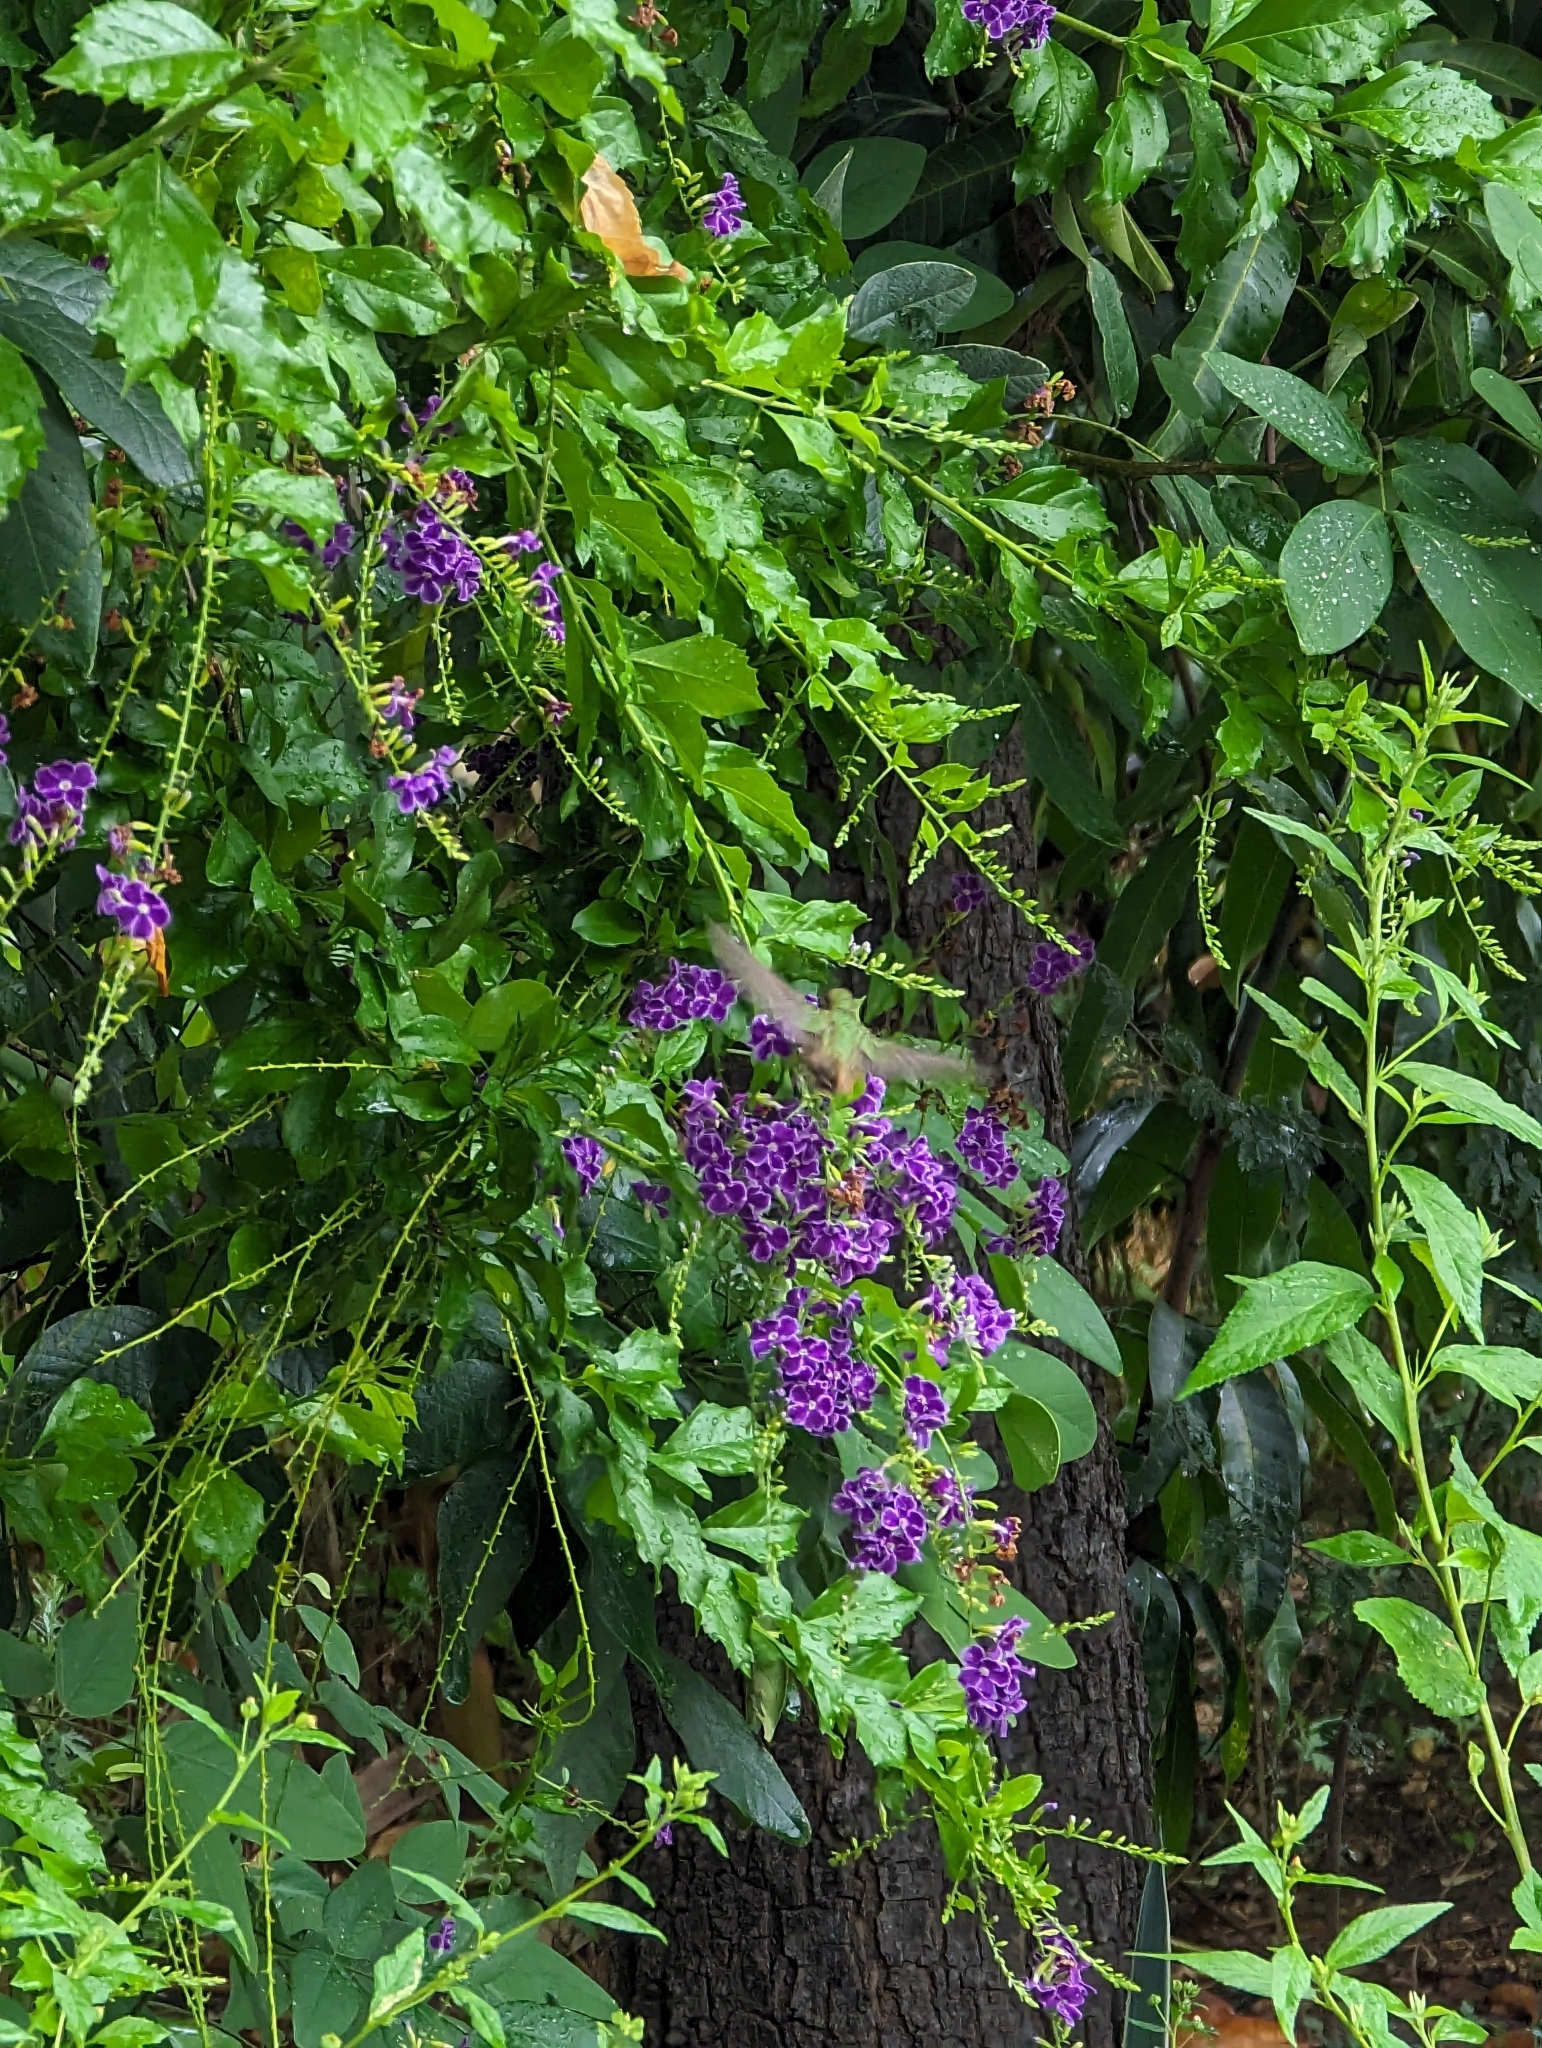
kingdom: Animalia
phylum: Chordata
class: Aves
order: Apodiformes
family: Trochilidae
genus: Basilinna
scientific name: Basilinna xantusii
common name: Xantus's hummingbird
